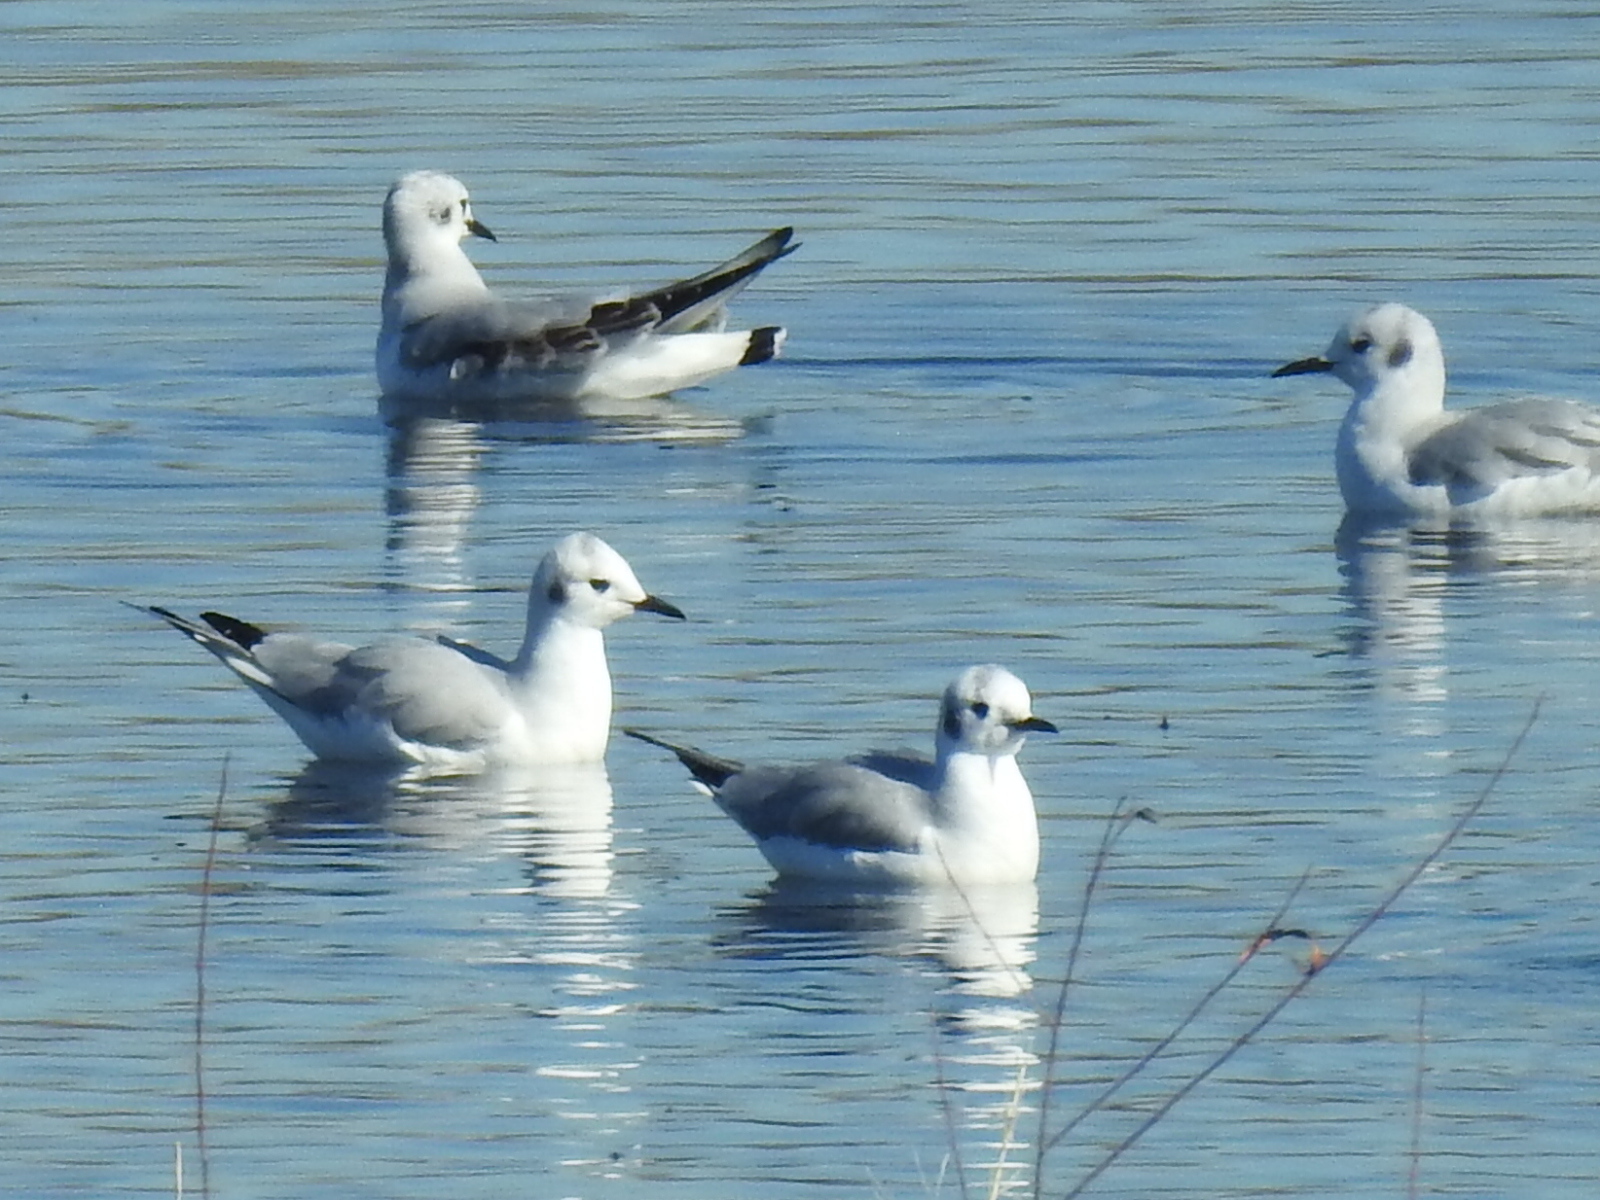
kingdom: Animalia
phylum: Chordata
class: Aves
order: Charadriiformes
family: Laridae
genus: Chroicocephalus
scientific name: Chroicocephalus philadelphia
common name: Bonaparte's gull
